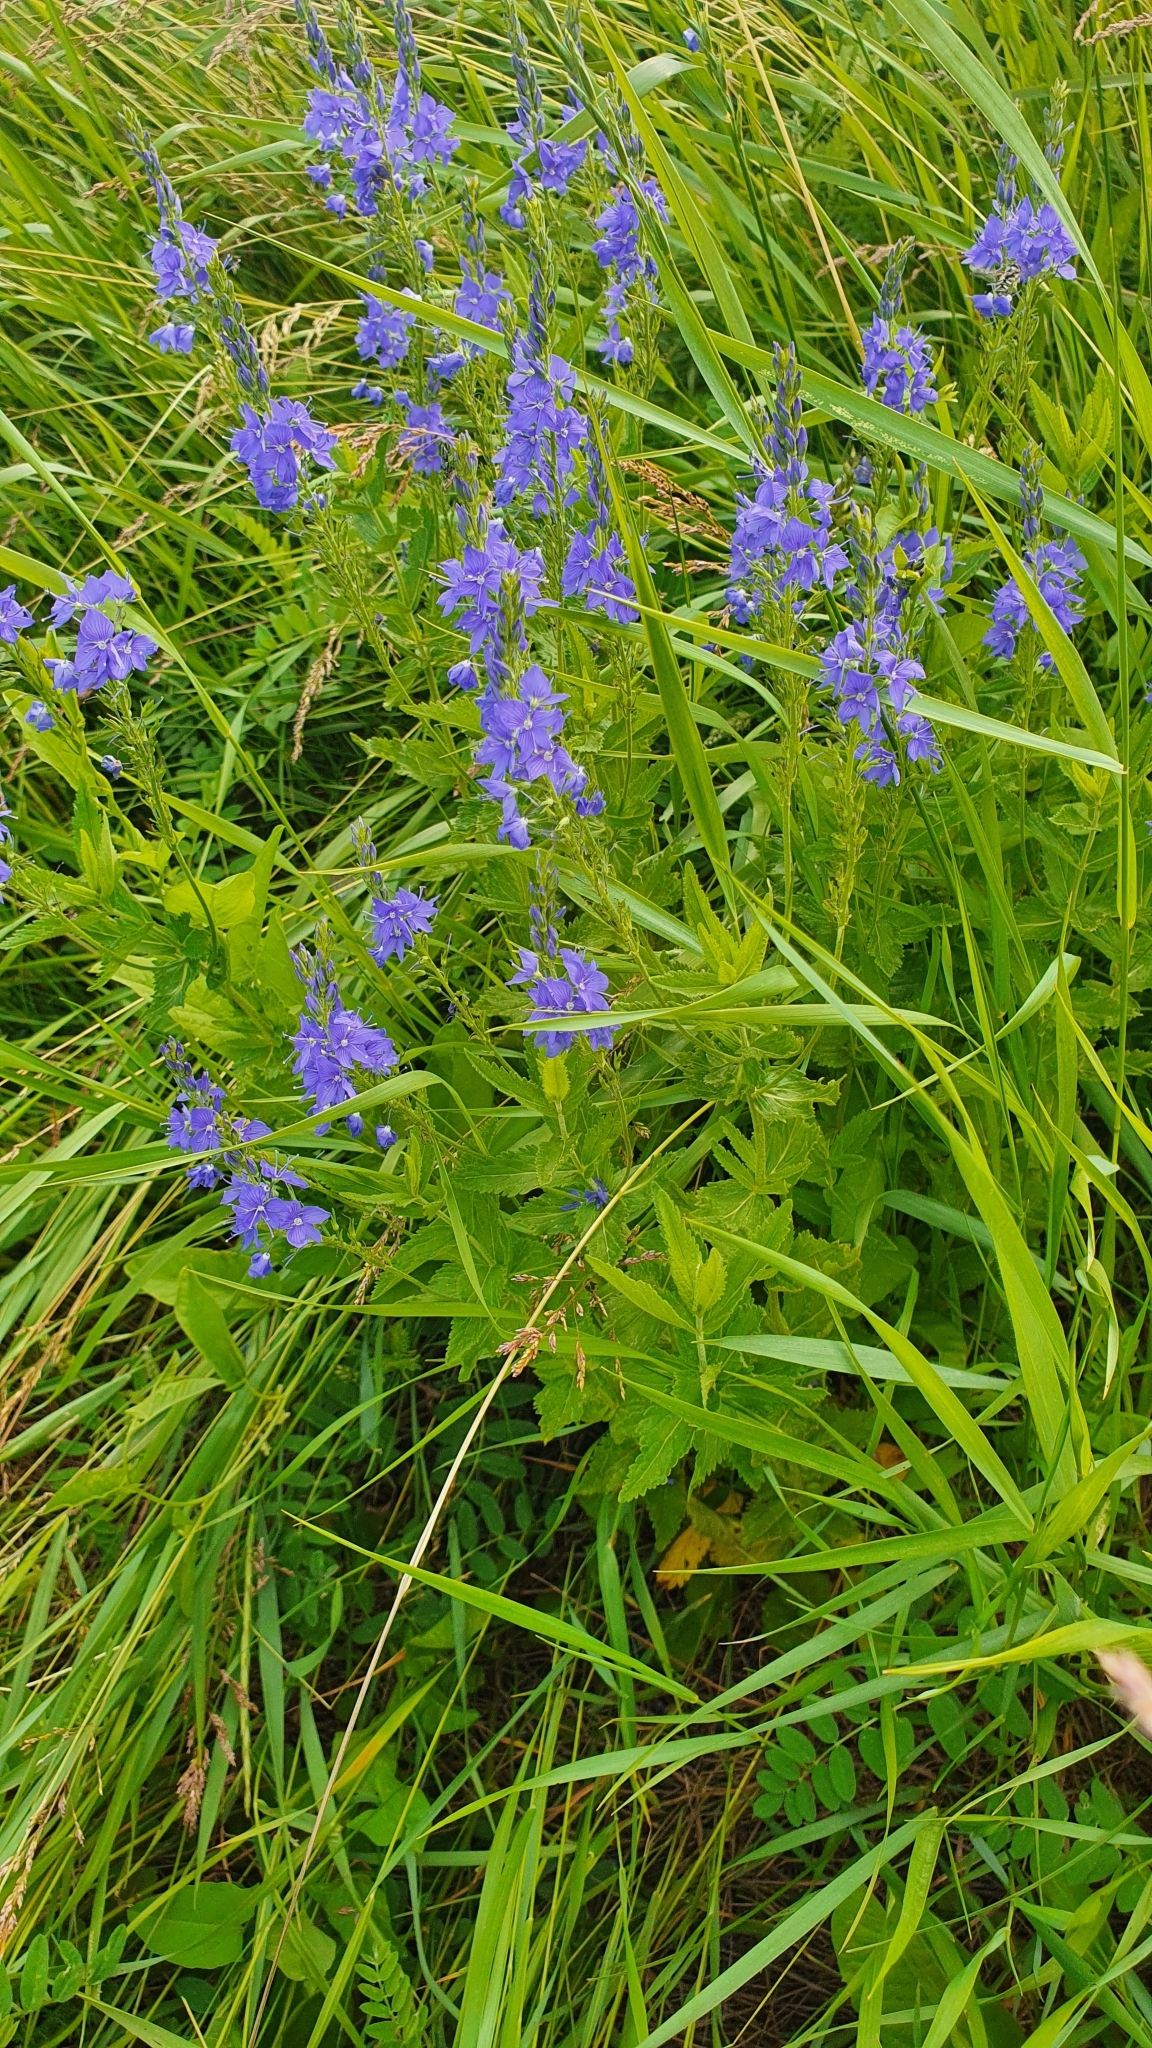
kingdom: Plantae
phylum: Tracheophyta
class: Magnoliopsida
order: Lamiales
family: Plantaginaceae
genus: Veronica
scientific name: Veronica teucrium
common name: Large speedwell
